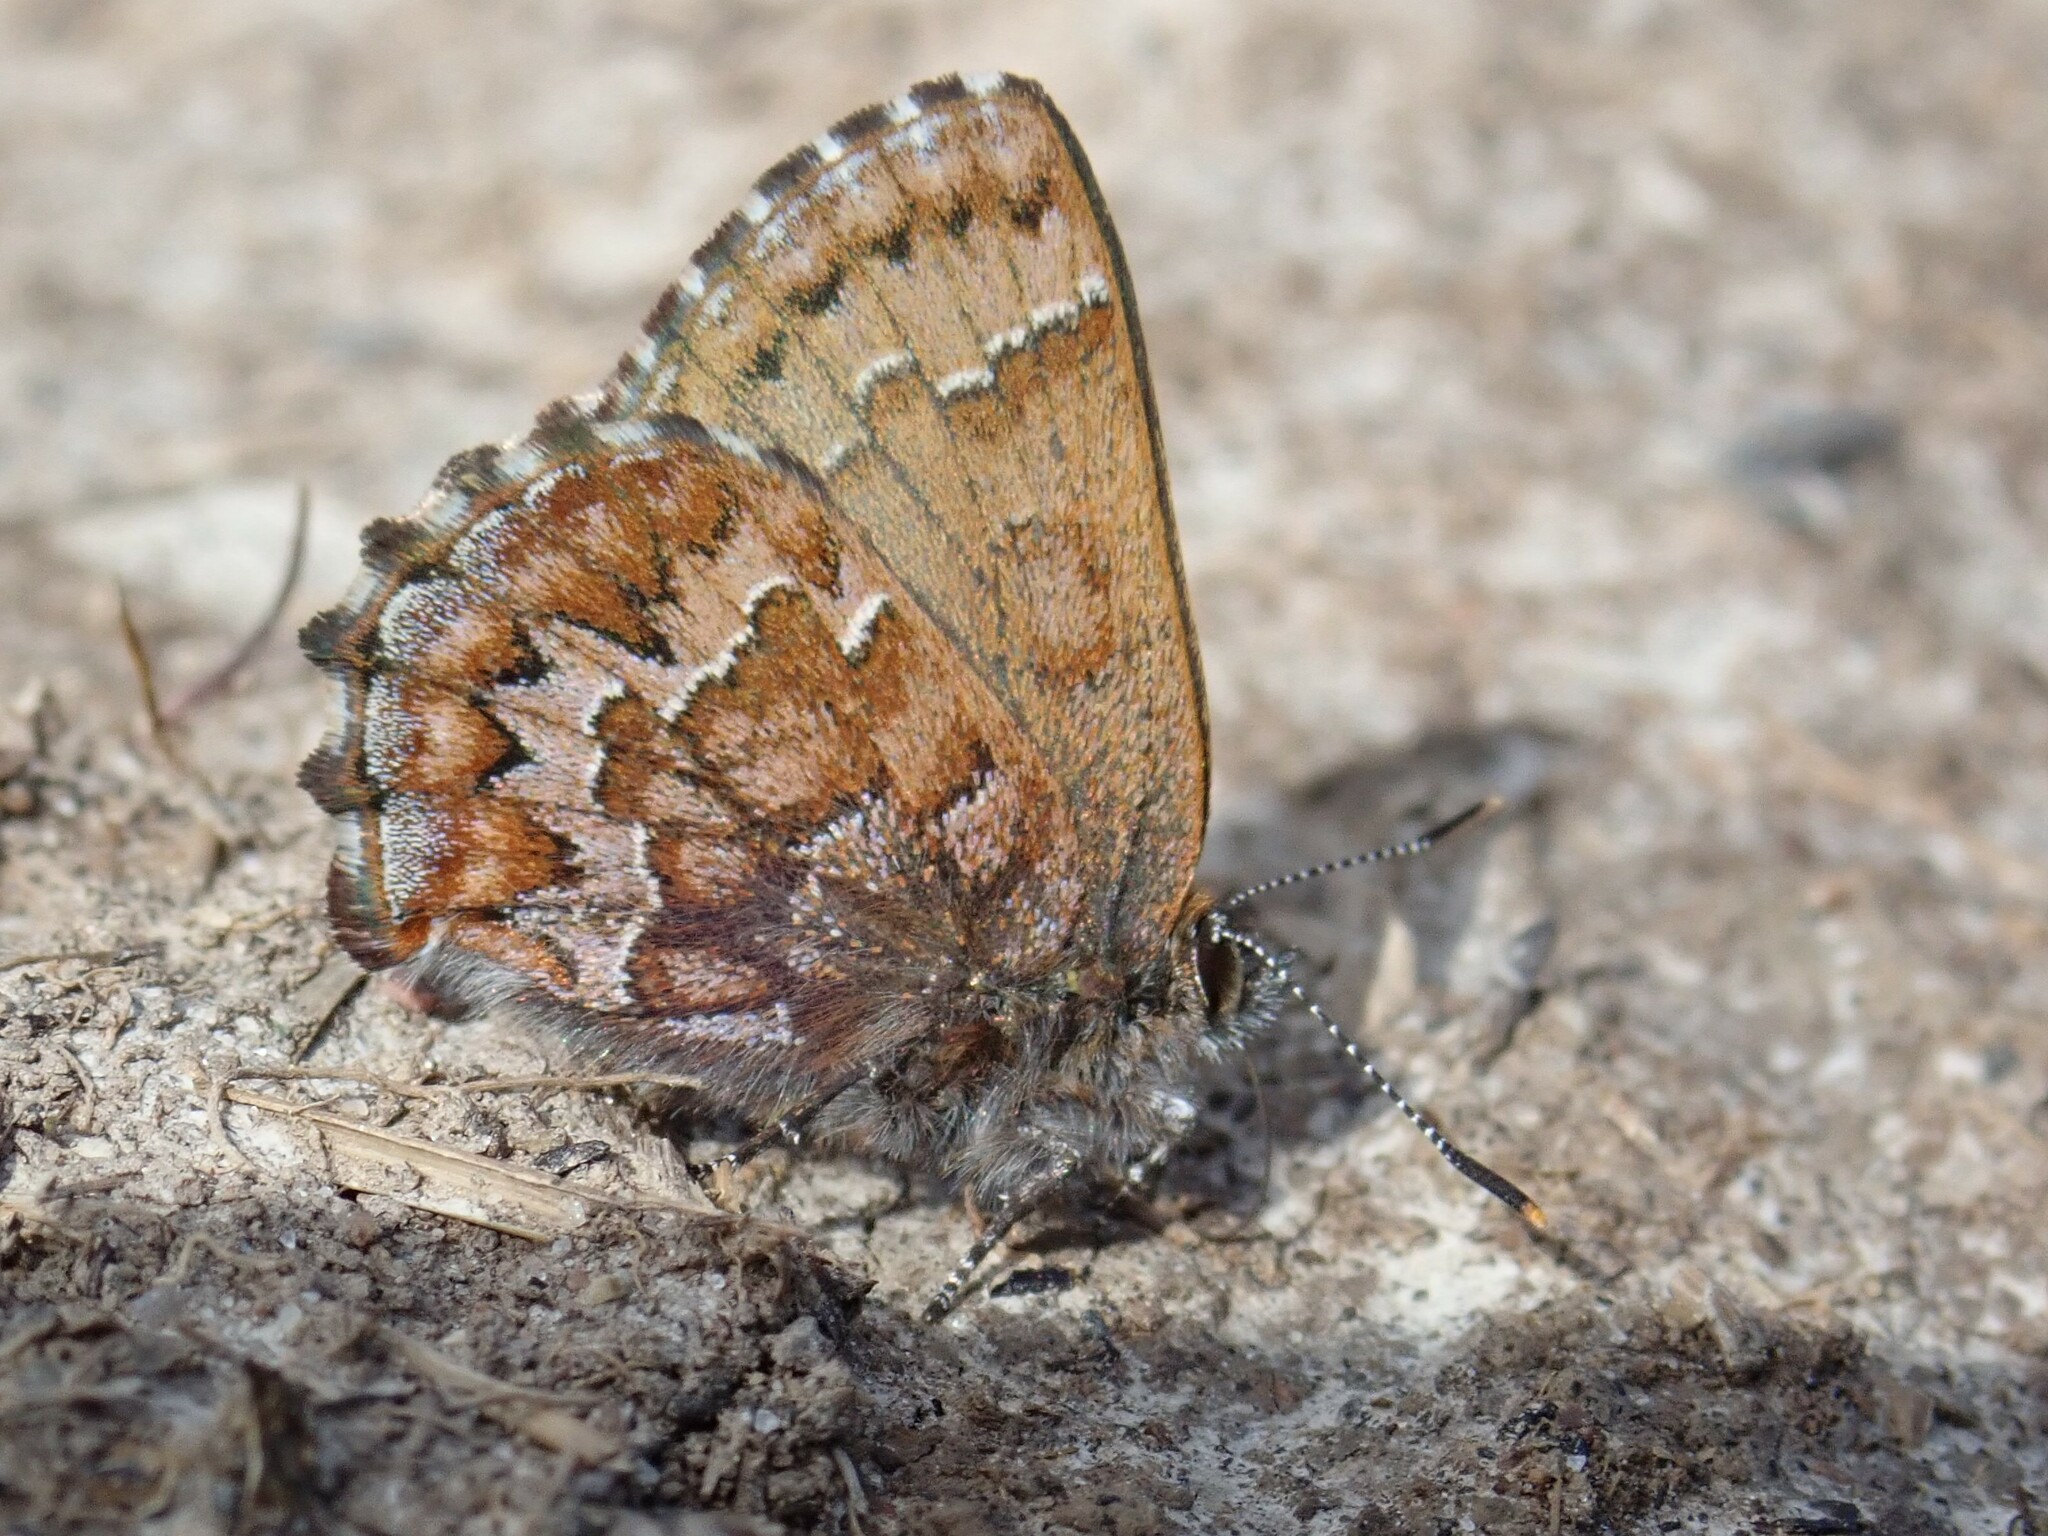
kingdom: Animalia
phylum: Arthropoda
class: Insecta
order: Lepidoptera
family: Lycaenidae
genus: Incisalia
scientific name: Incisalia niphon
